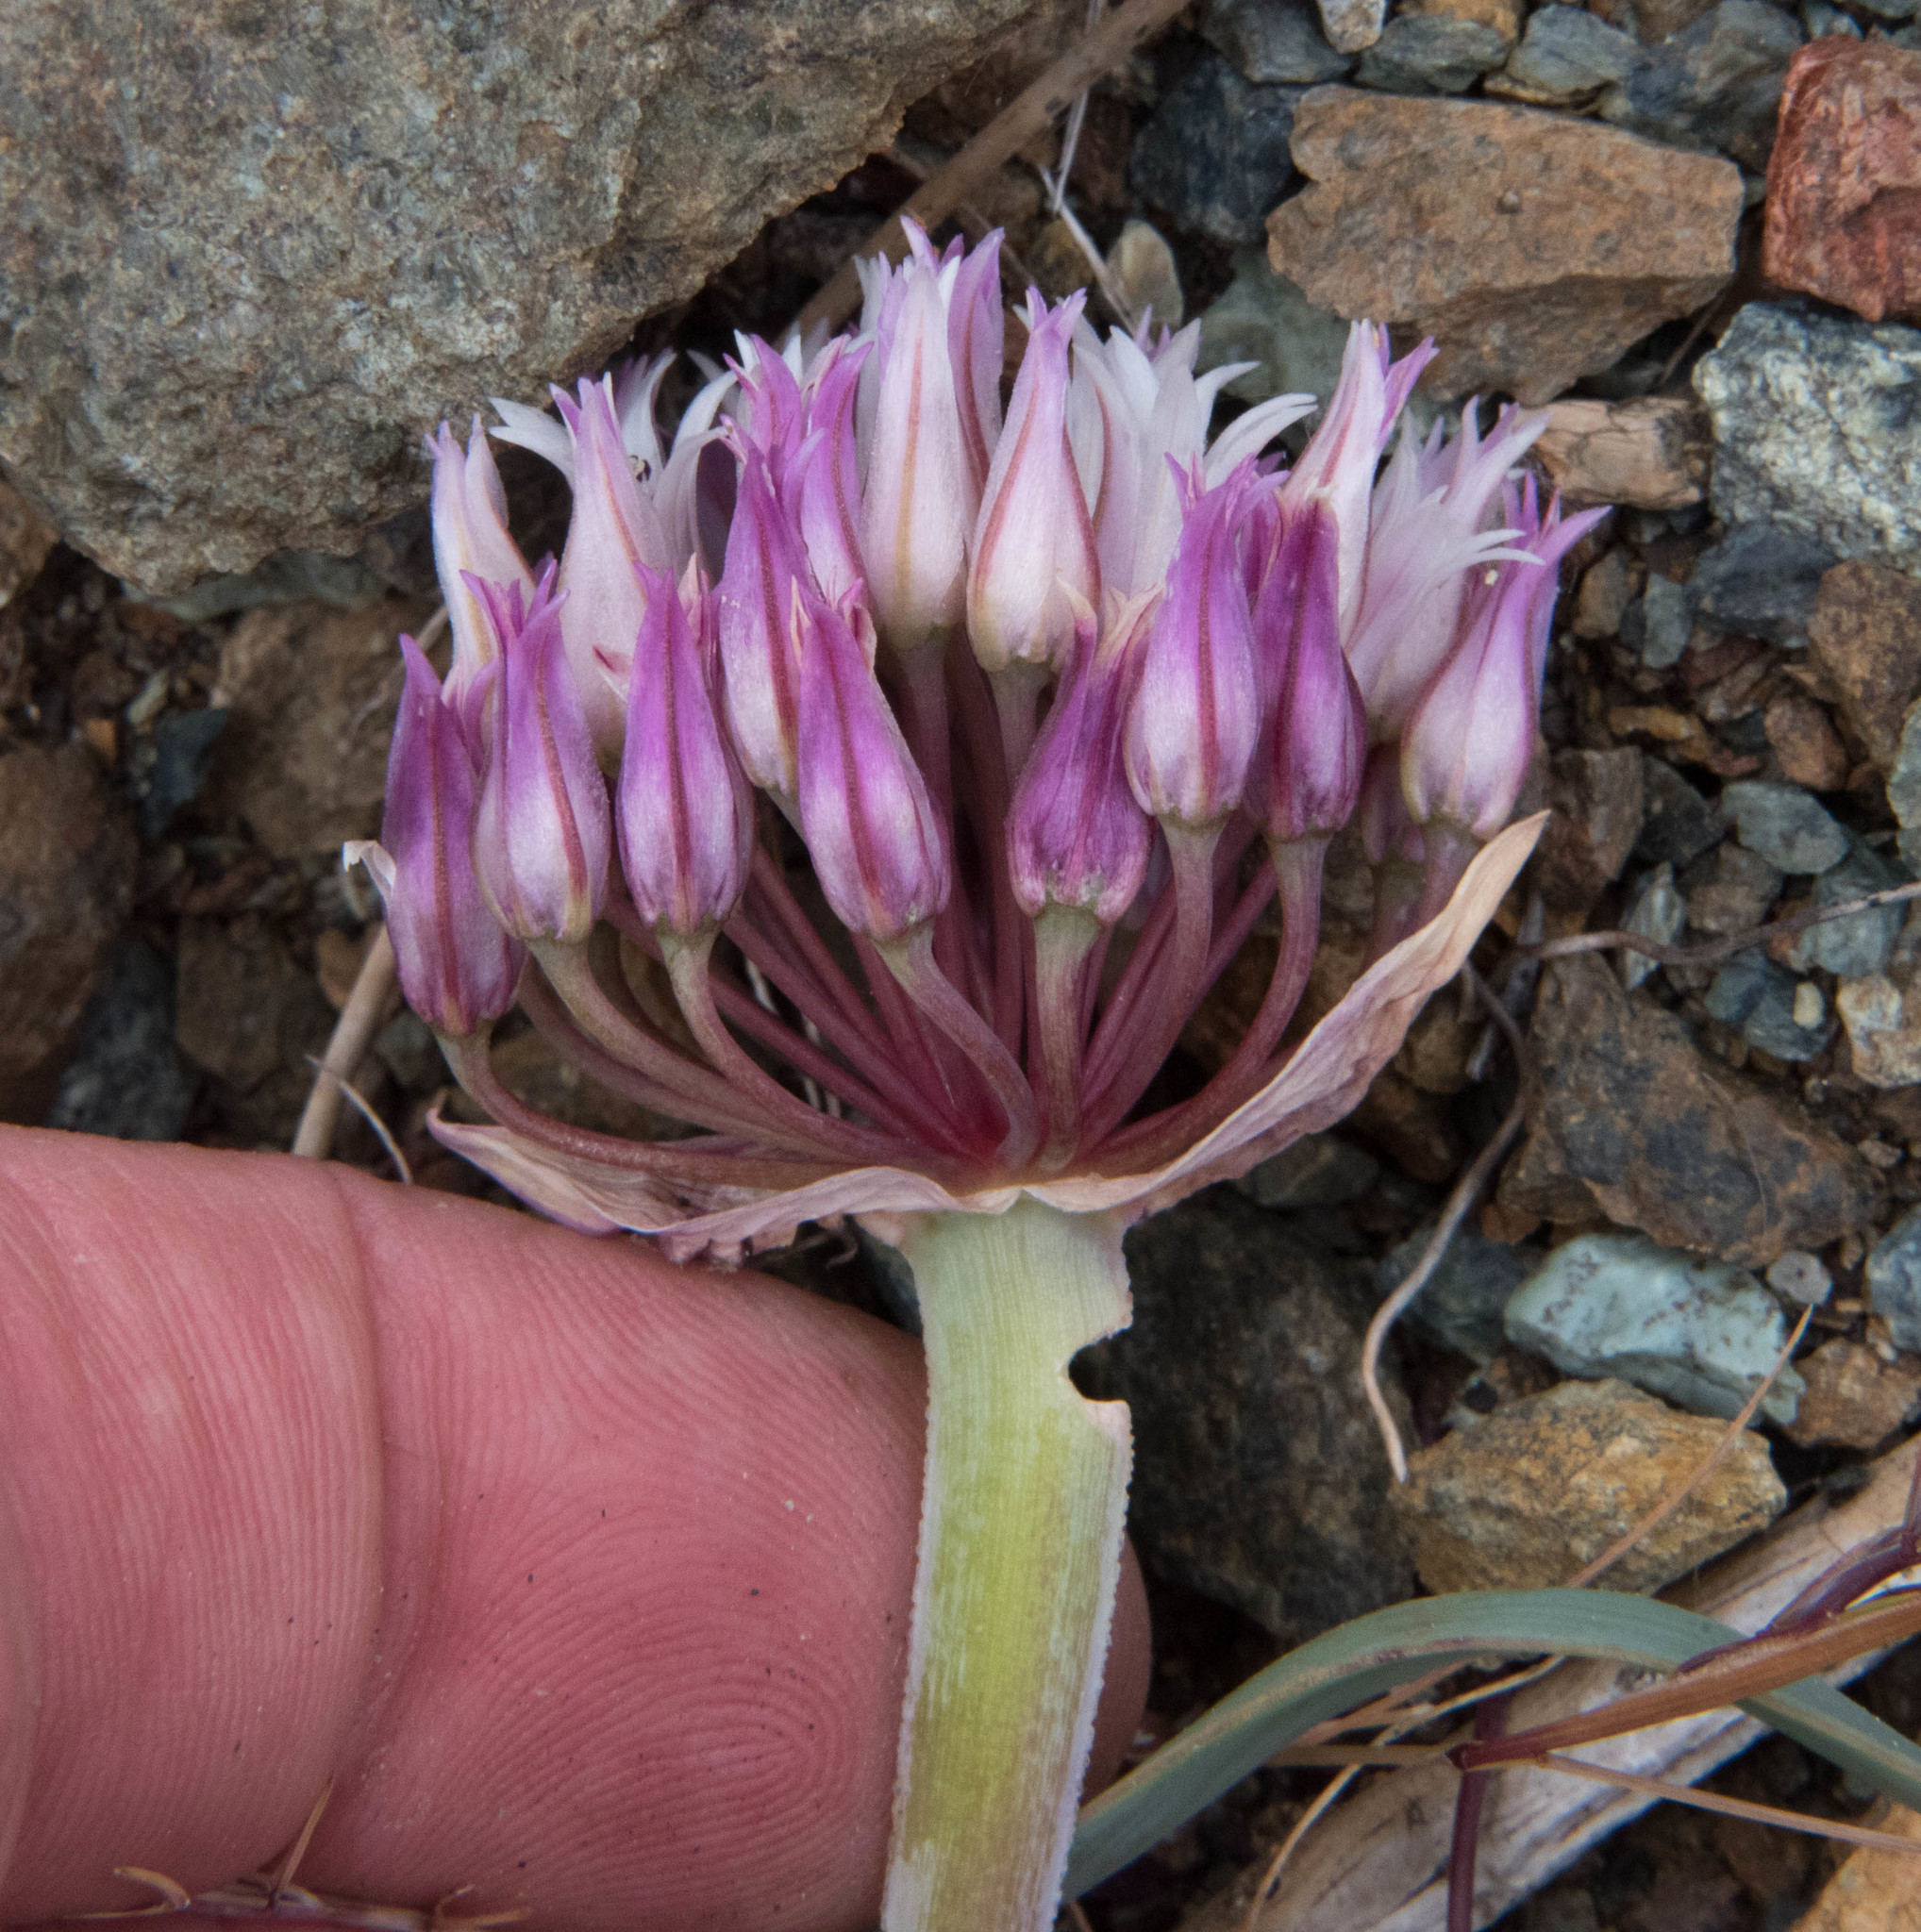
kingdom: Plantae
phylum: Tracheophyta
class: Liliopsida
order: Asparagales
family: Amaryllidaceae
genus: Allium
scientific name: Allium falcifolium
